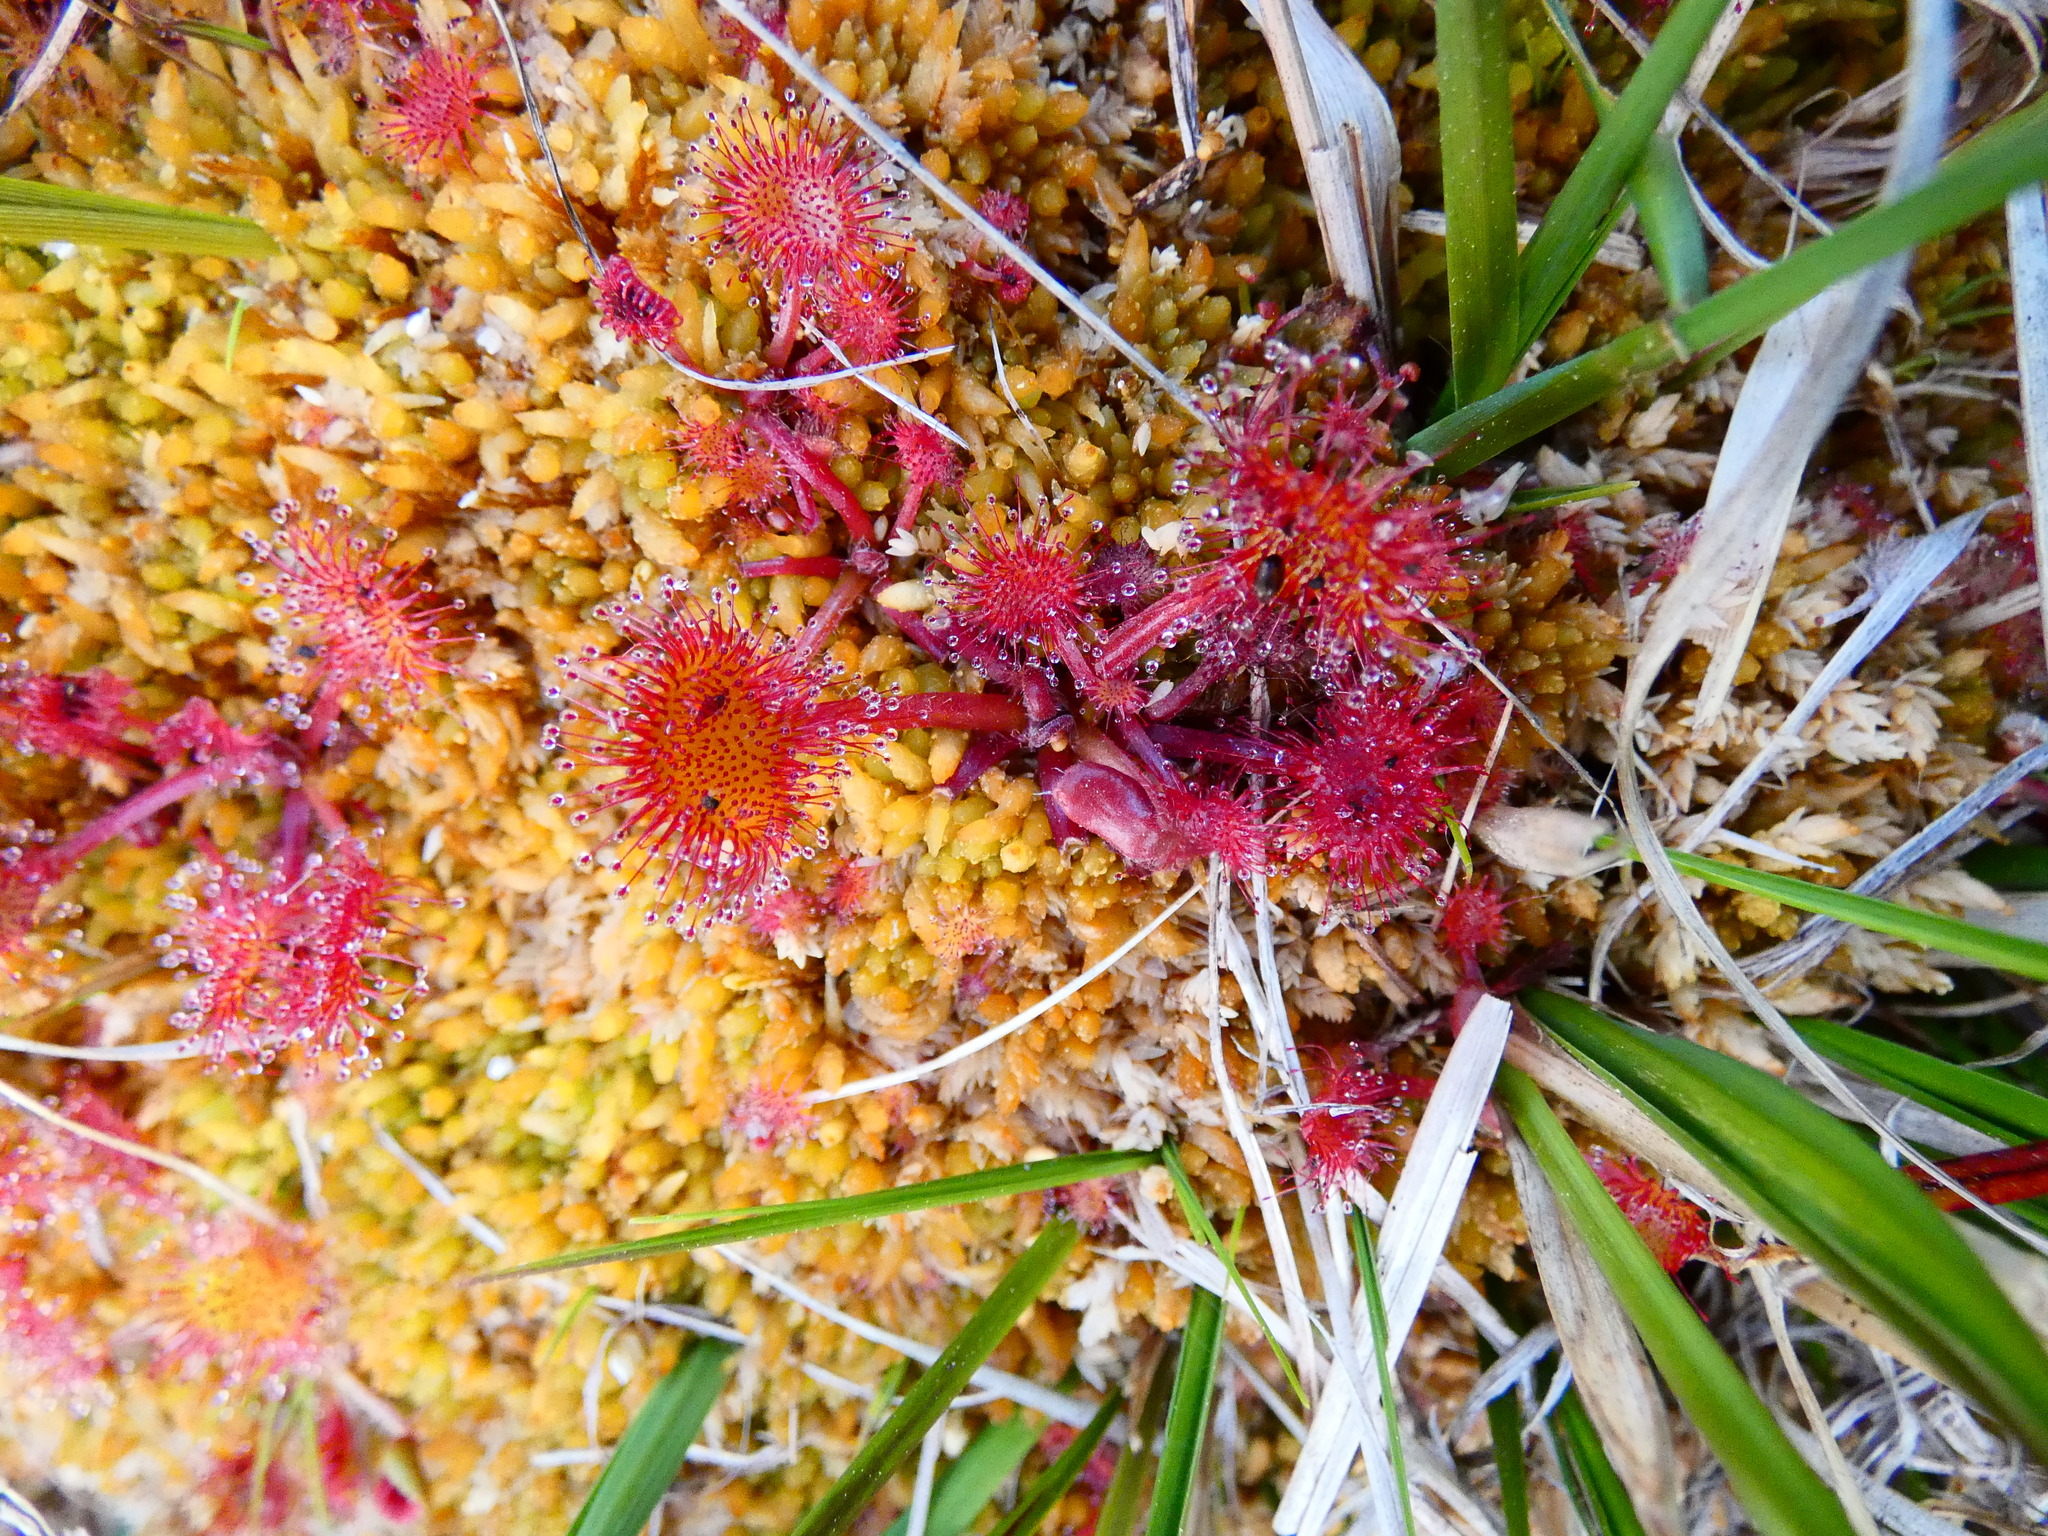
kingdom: Plantae
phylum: Tracheophyta
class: Magnoliopsida
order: Caryophyllales
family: Droseraceae
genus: Drosera
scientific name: Drosera rotundifolia
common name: Round-leaved sundew
